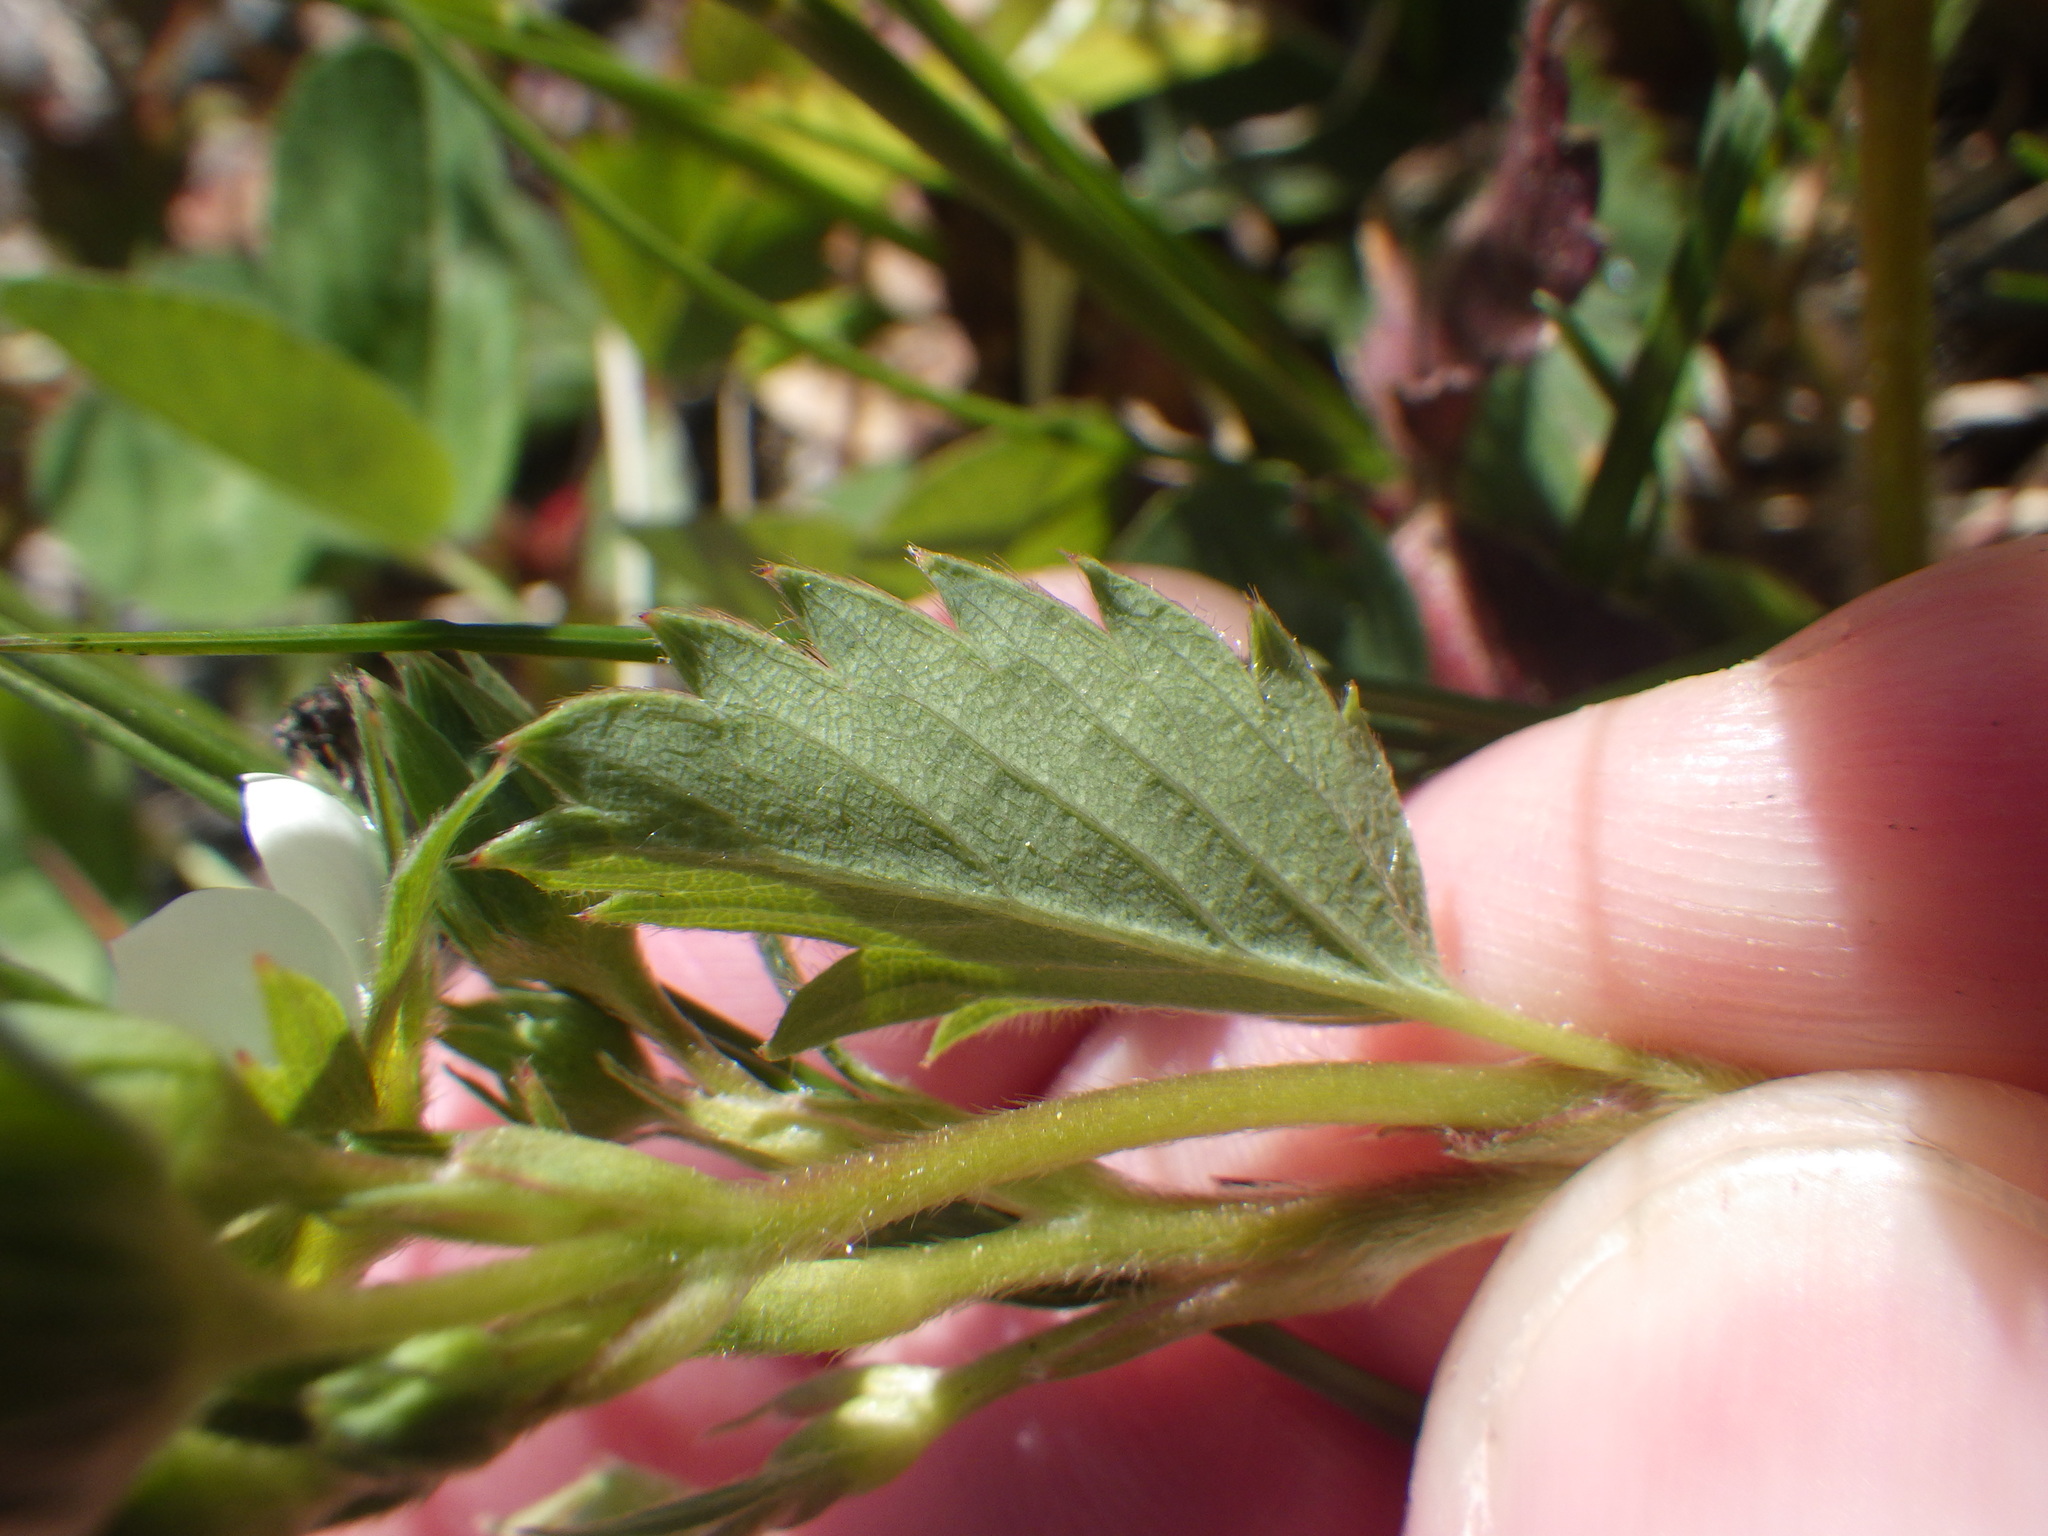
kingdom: Plantae
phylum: Tracheophyta
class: Magnoliopsida
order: Rosales
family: Rosaceae
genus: Fragaria
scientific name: Fragaria virginiana
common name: Thickleaved wild strawberry
